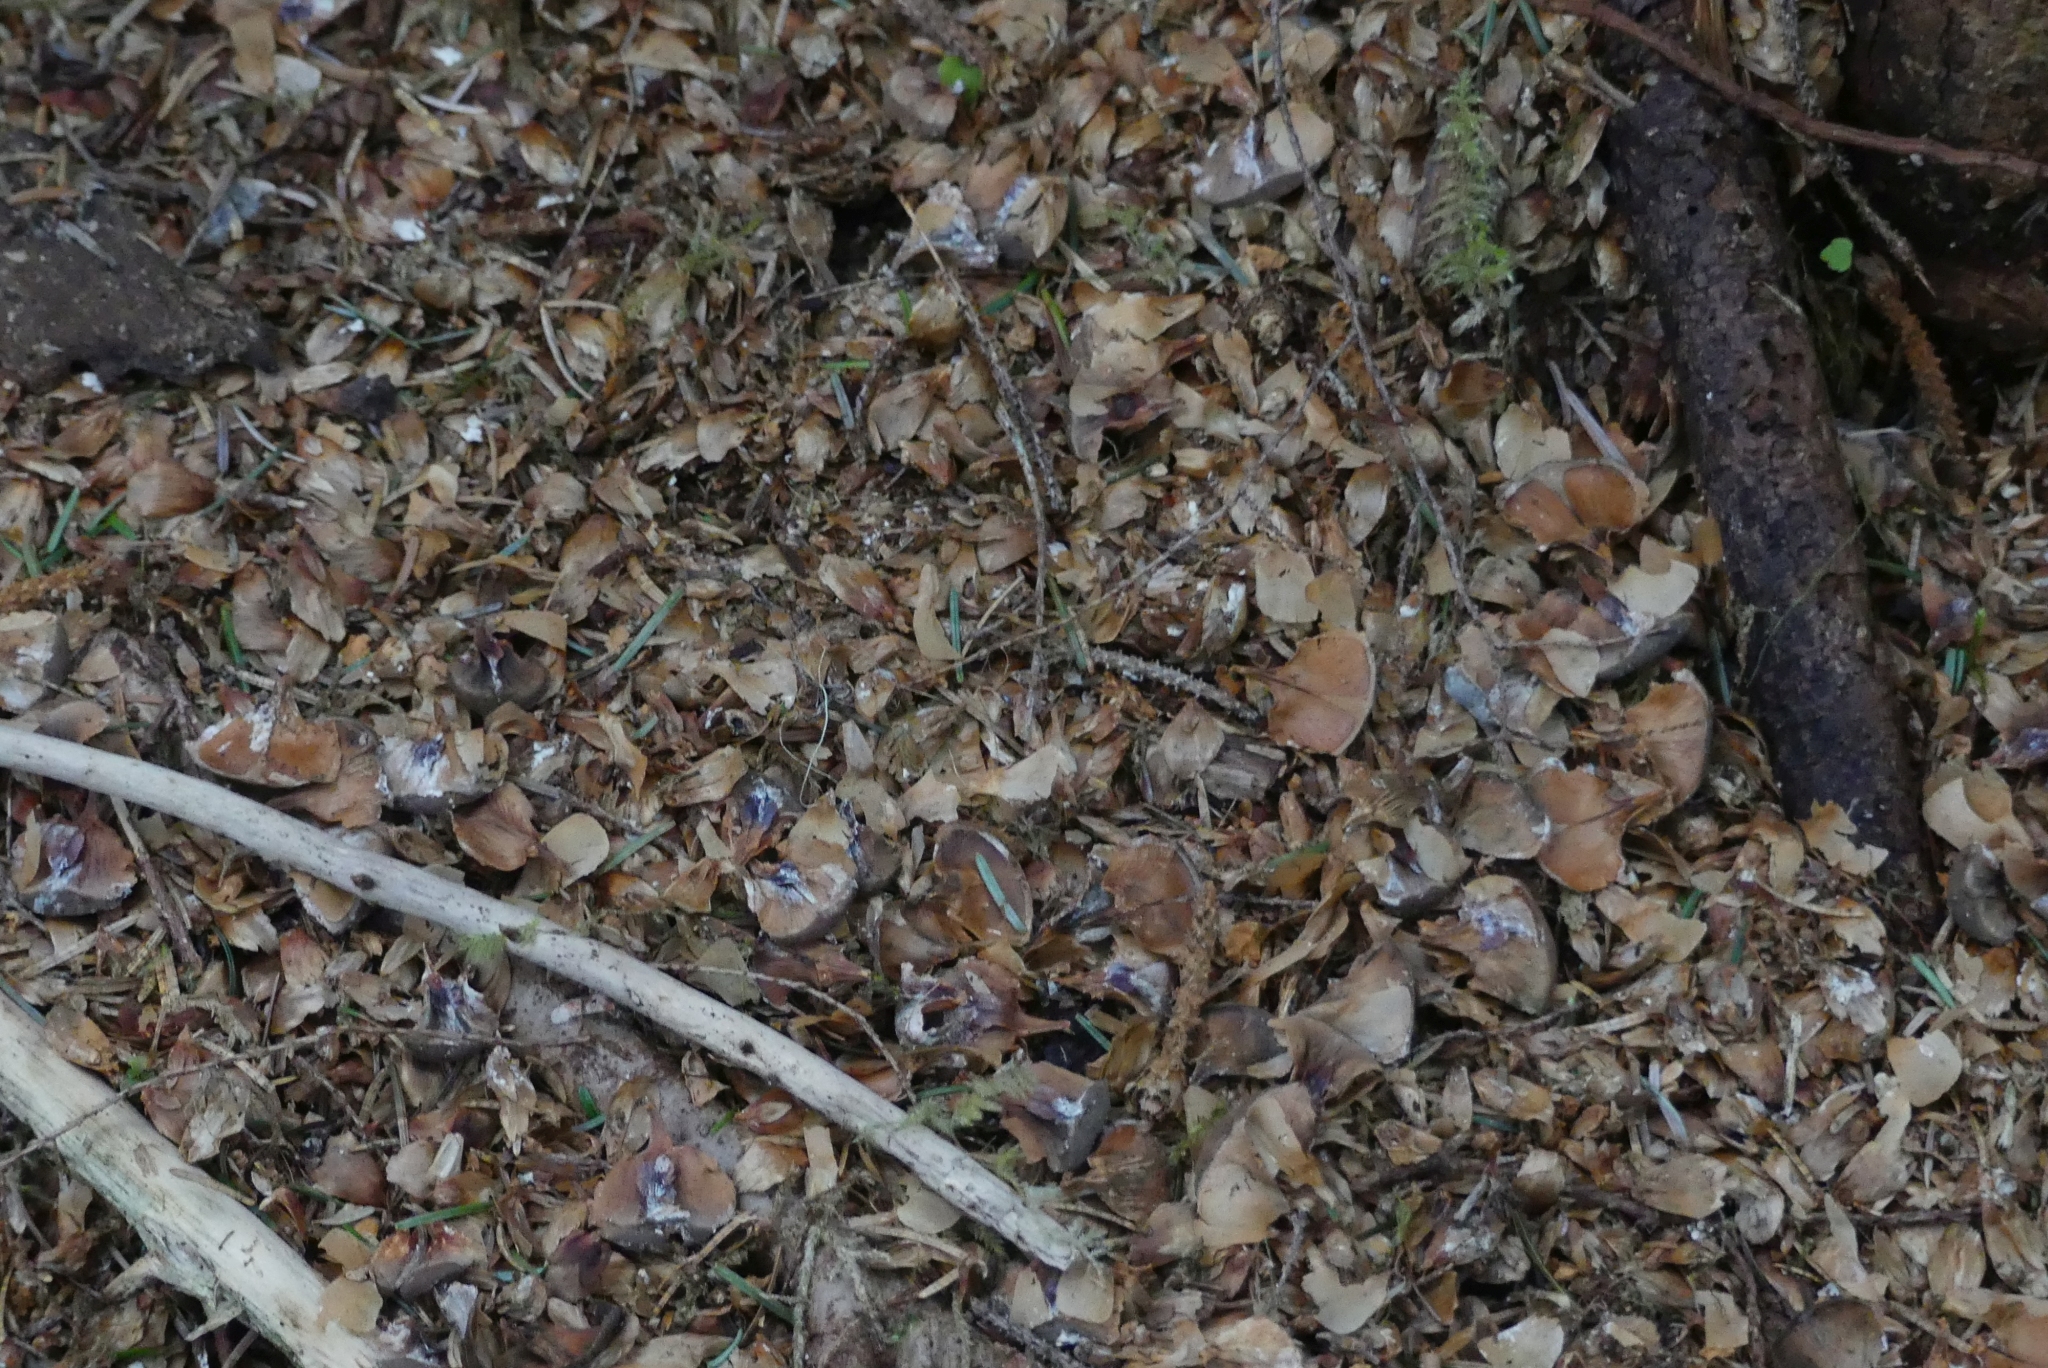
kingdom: Animalia
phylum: Chordata
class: Mammalia
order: Rodentia
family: Sciuridae
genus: Tamiasciurus
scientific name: Tamiasciurus hudsonicus
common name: Red squirrel
